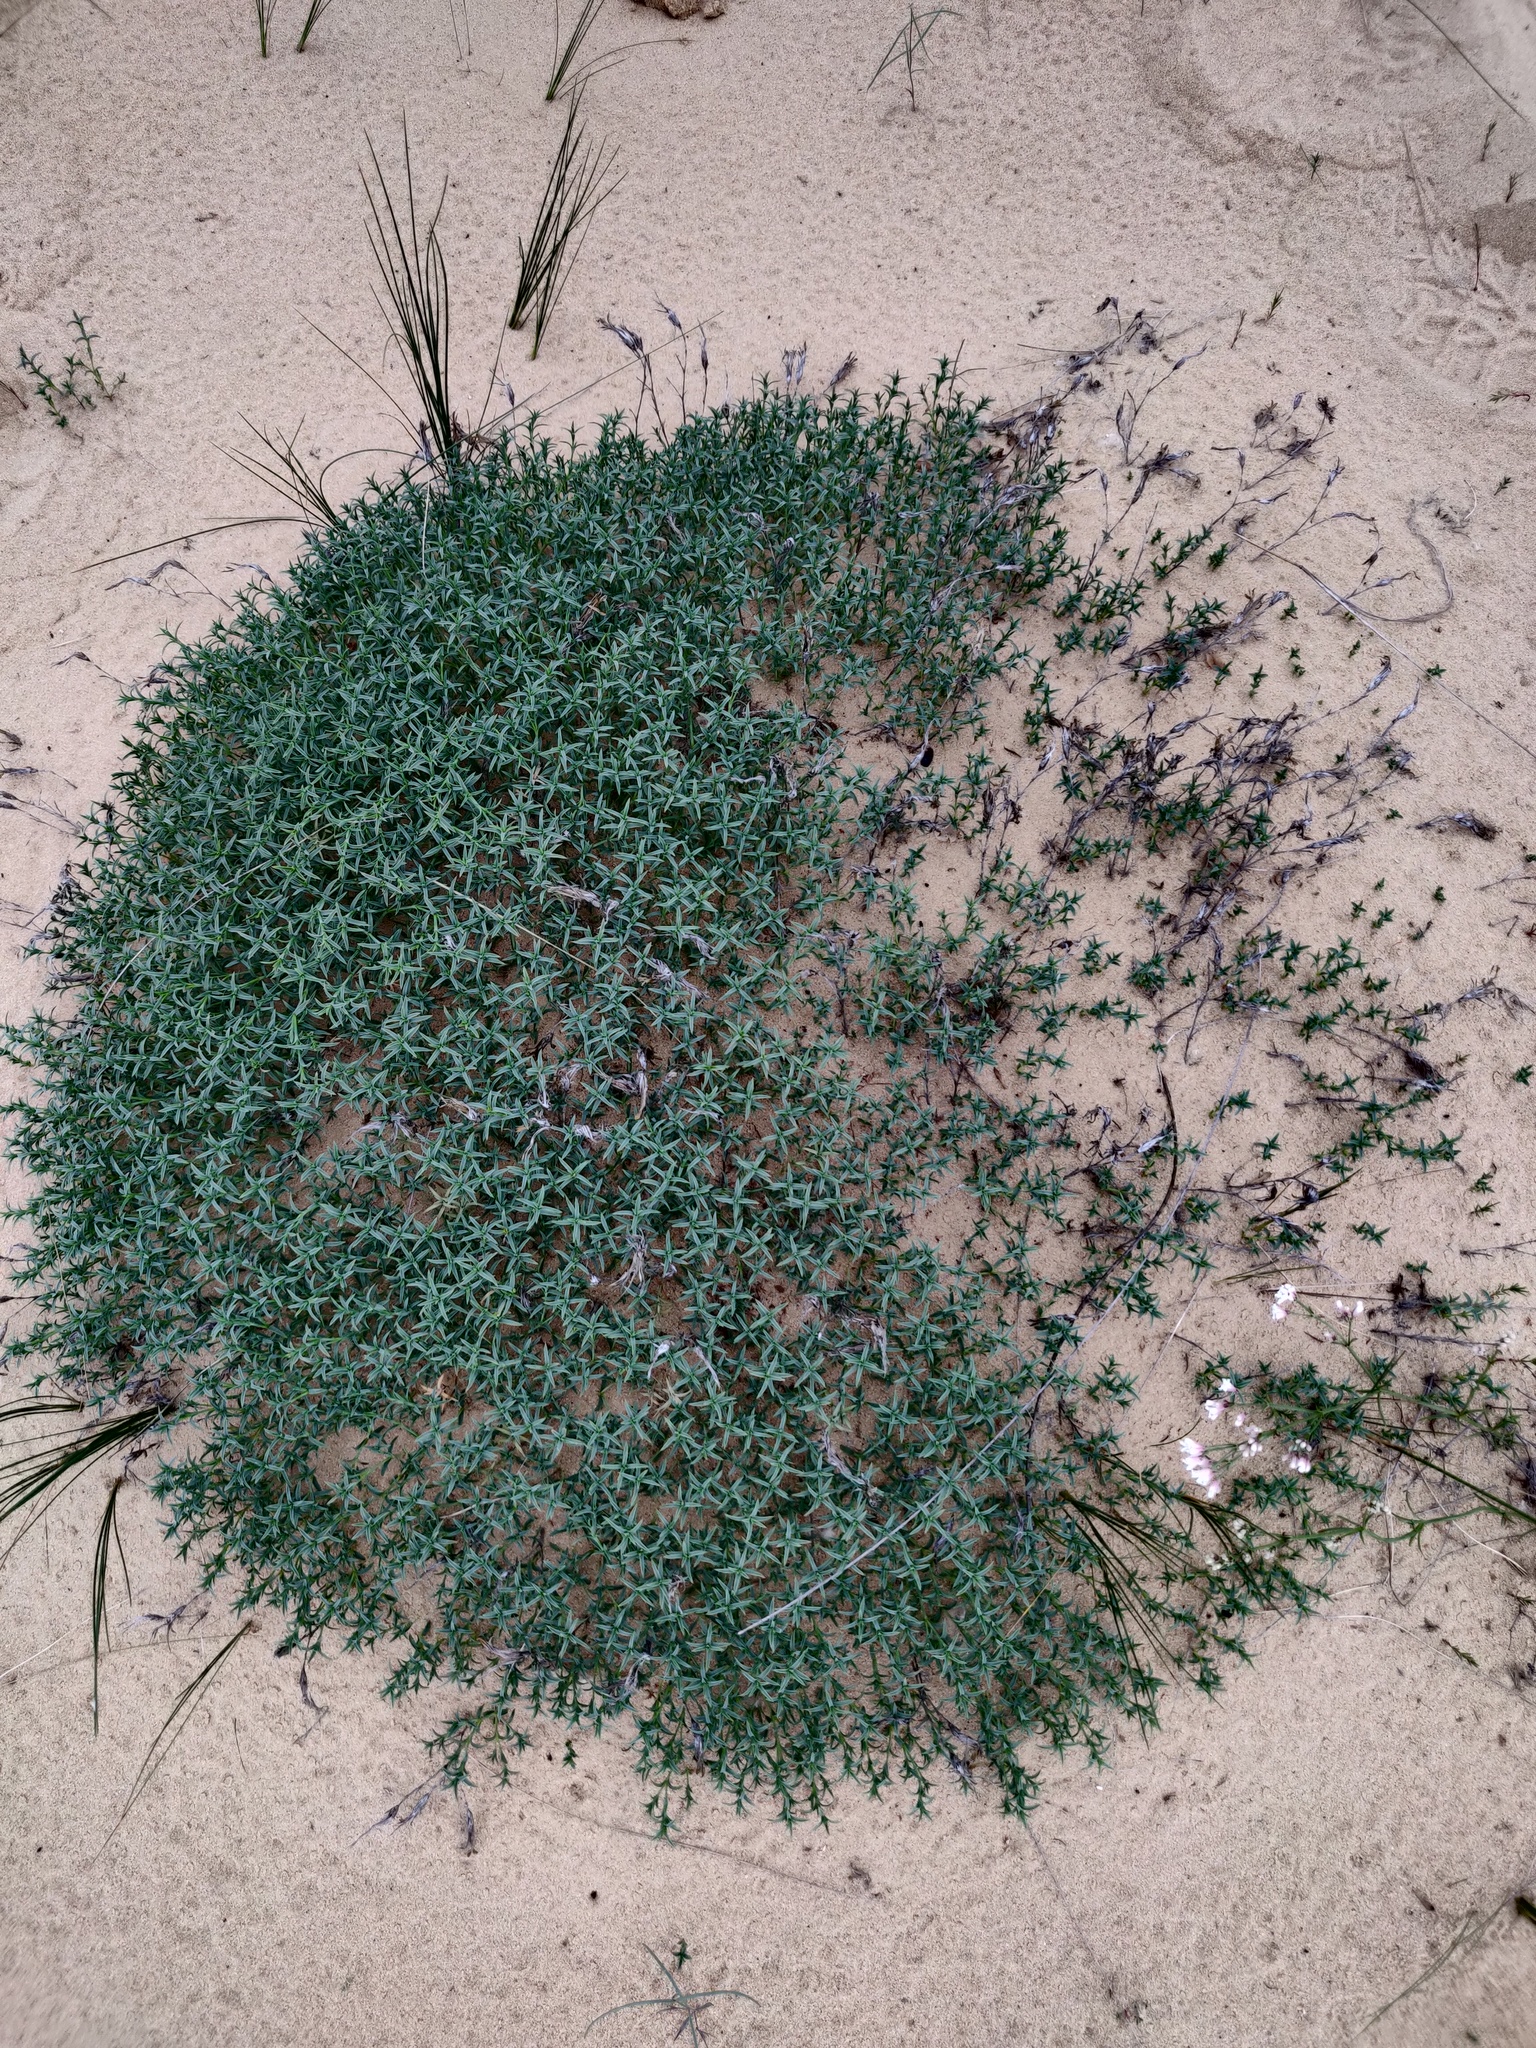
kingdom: Plantae
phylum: Tracheophyta
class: Magnoliopsida
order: Caryophyllales
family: Caryophyllaceae
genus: Dianthus
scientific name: Dianthus squarrosus
